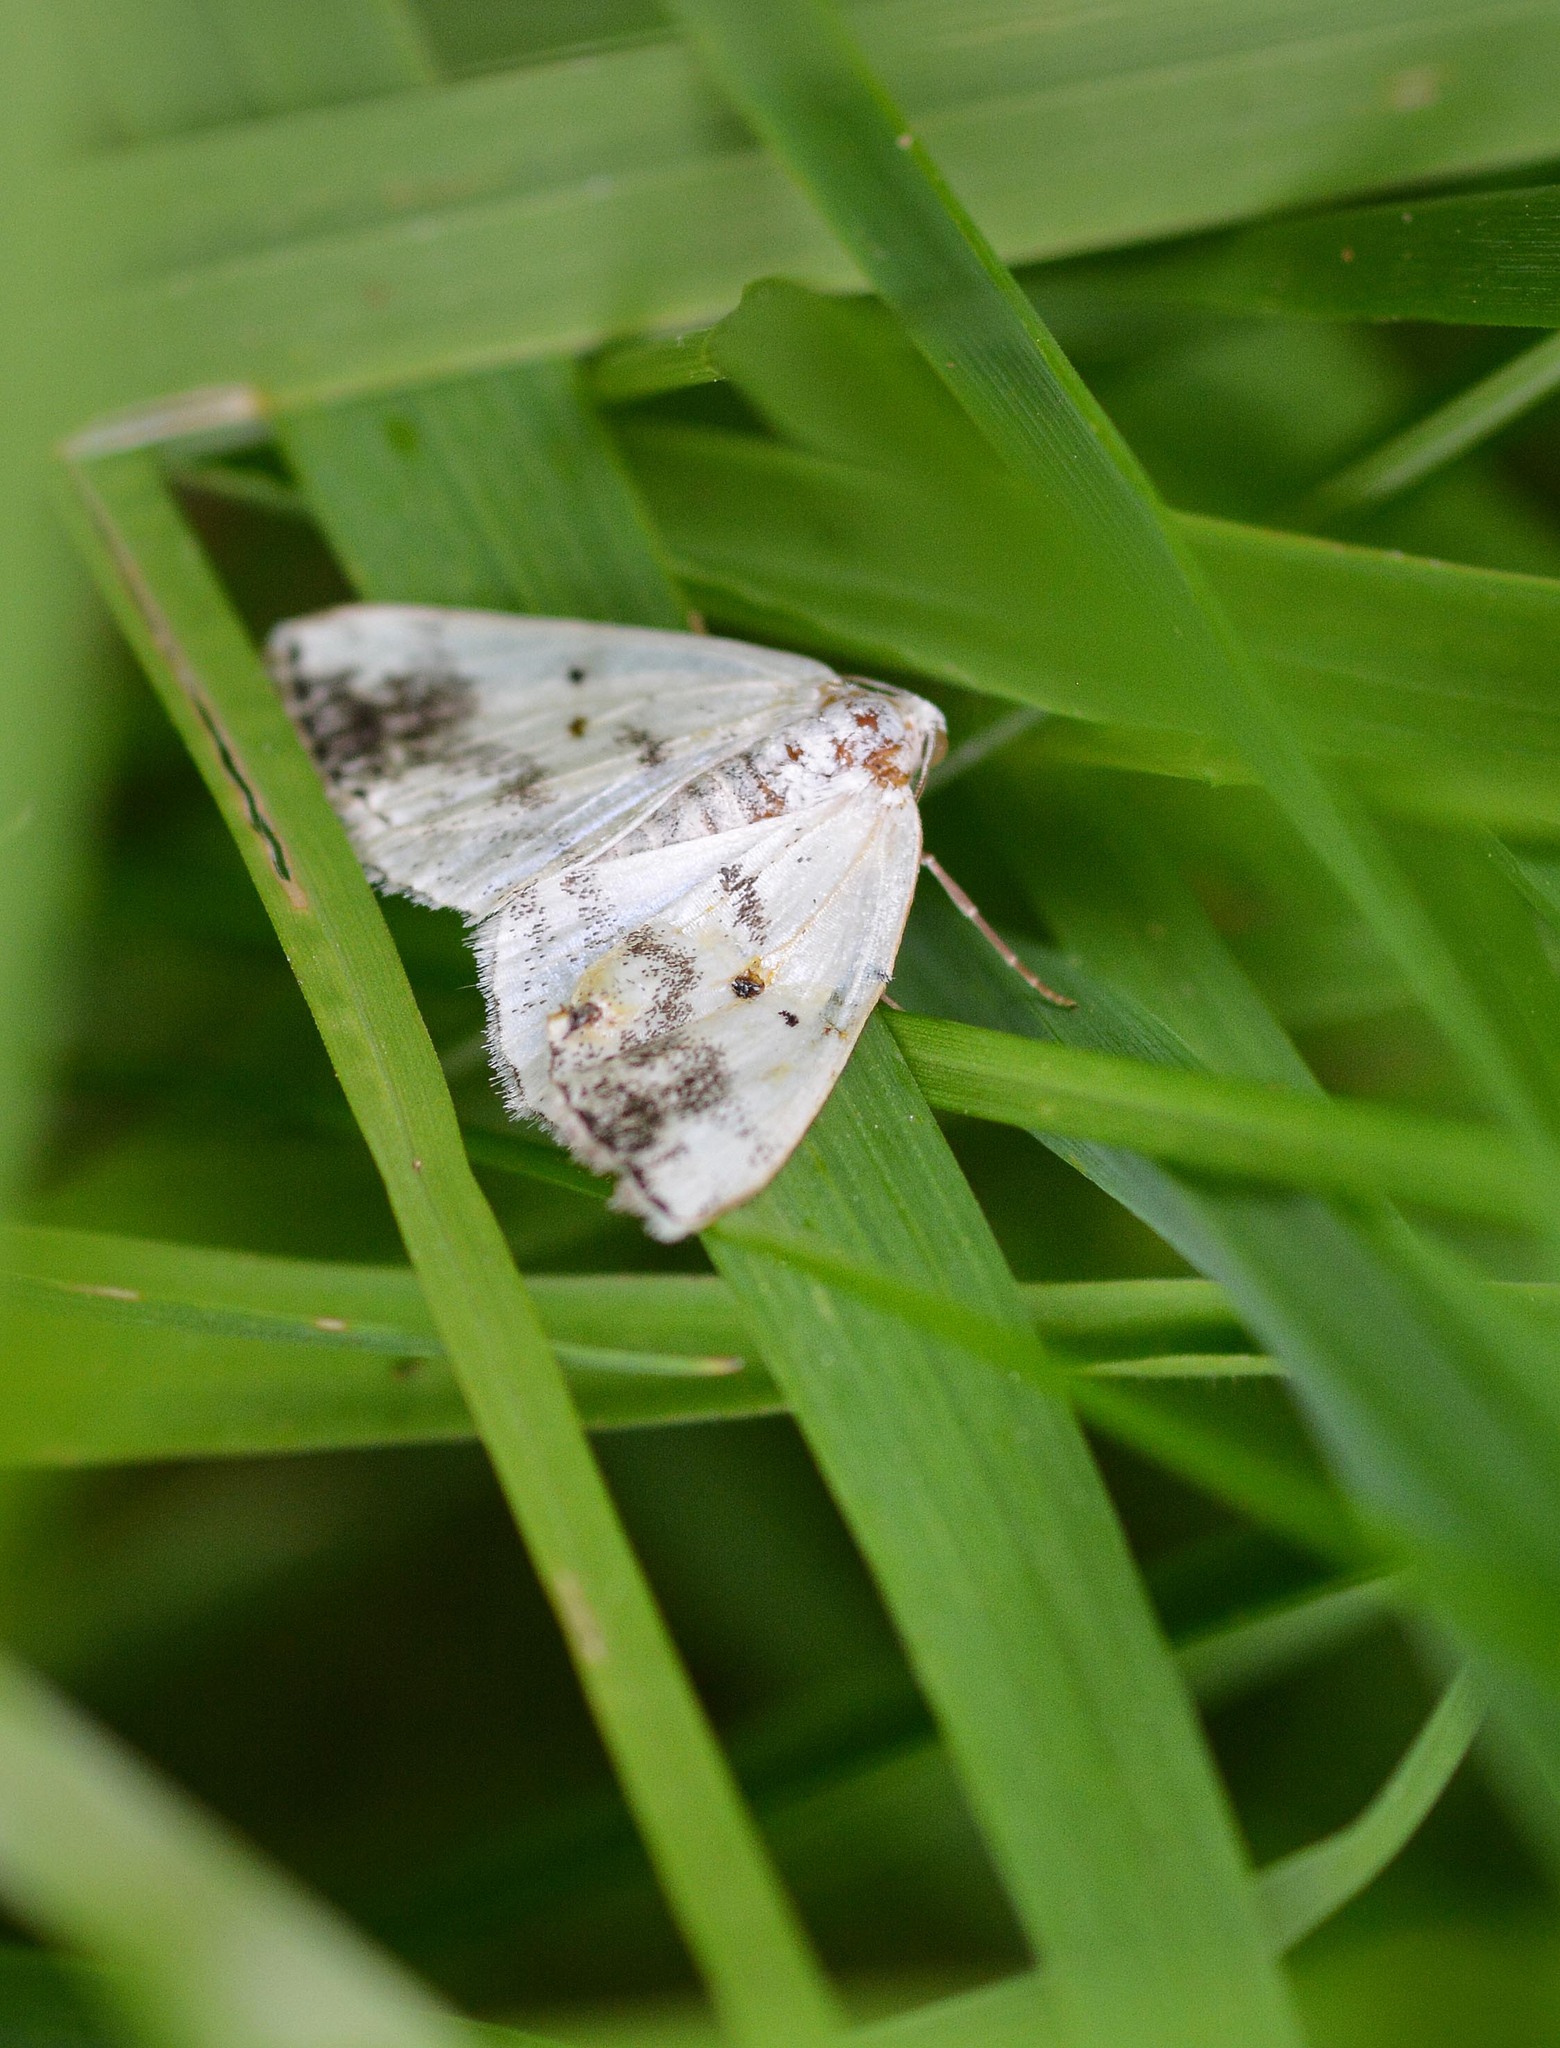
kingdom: Animalia
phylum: Arthropoda
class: Insecta
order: Lepidoptera
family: Geometridae
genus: Lomographa
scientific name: Lomographa temerata
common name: Clouded silver
